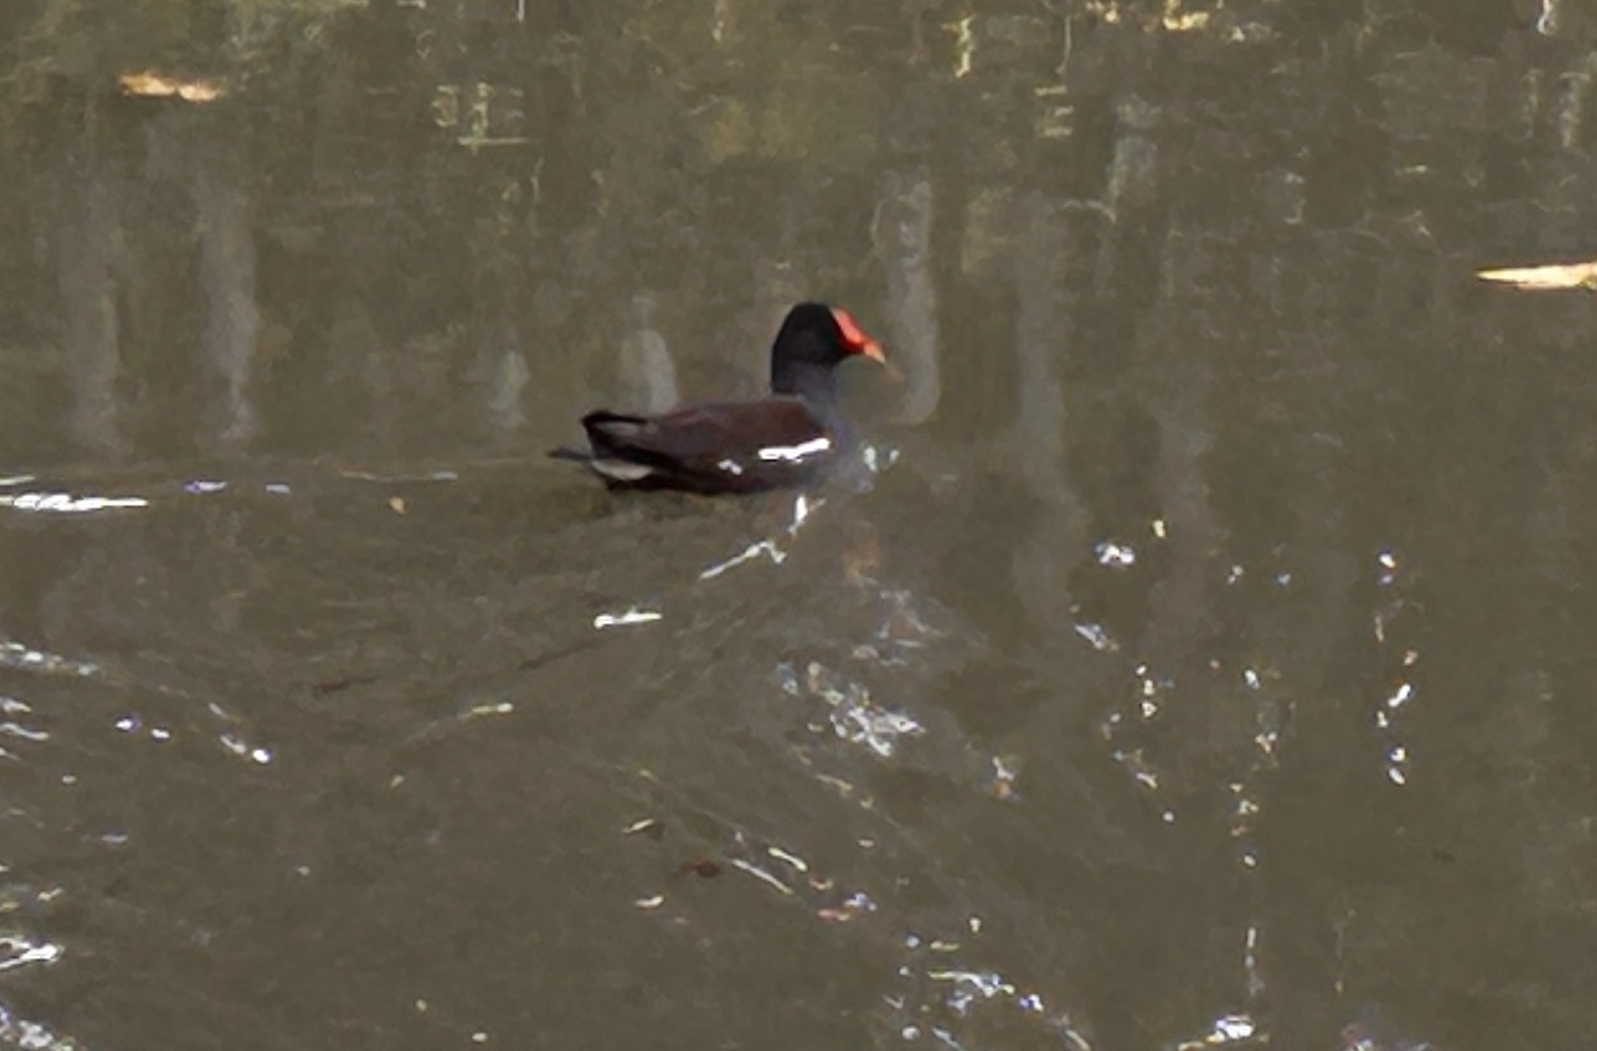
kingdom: Animalia
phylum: Chordata
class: Aves
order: Gruiformes
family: Rallidae
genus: Gallinula
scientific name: Gallinula chloropus
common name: Common moorhen
